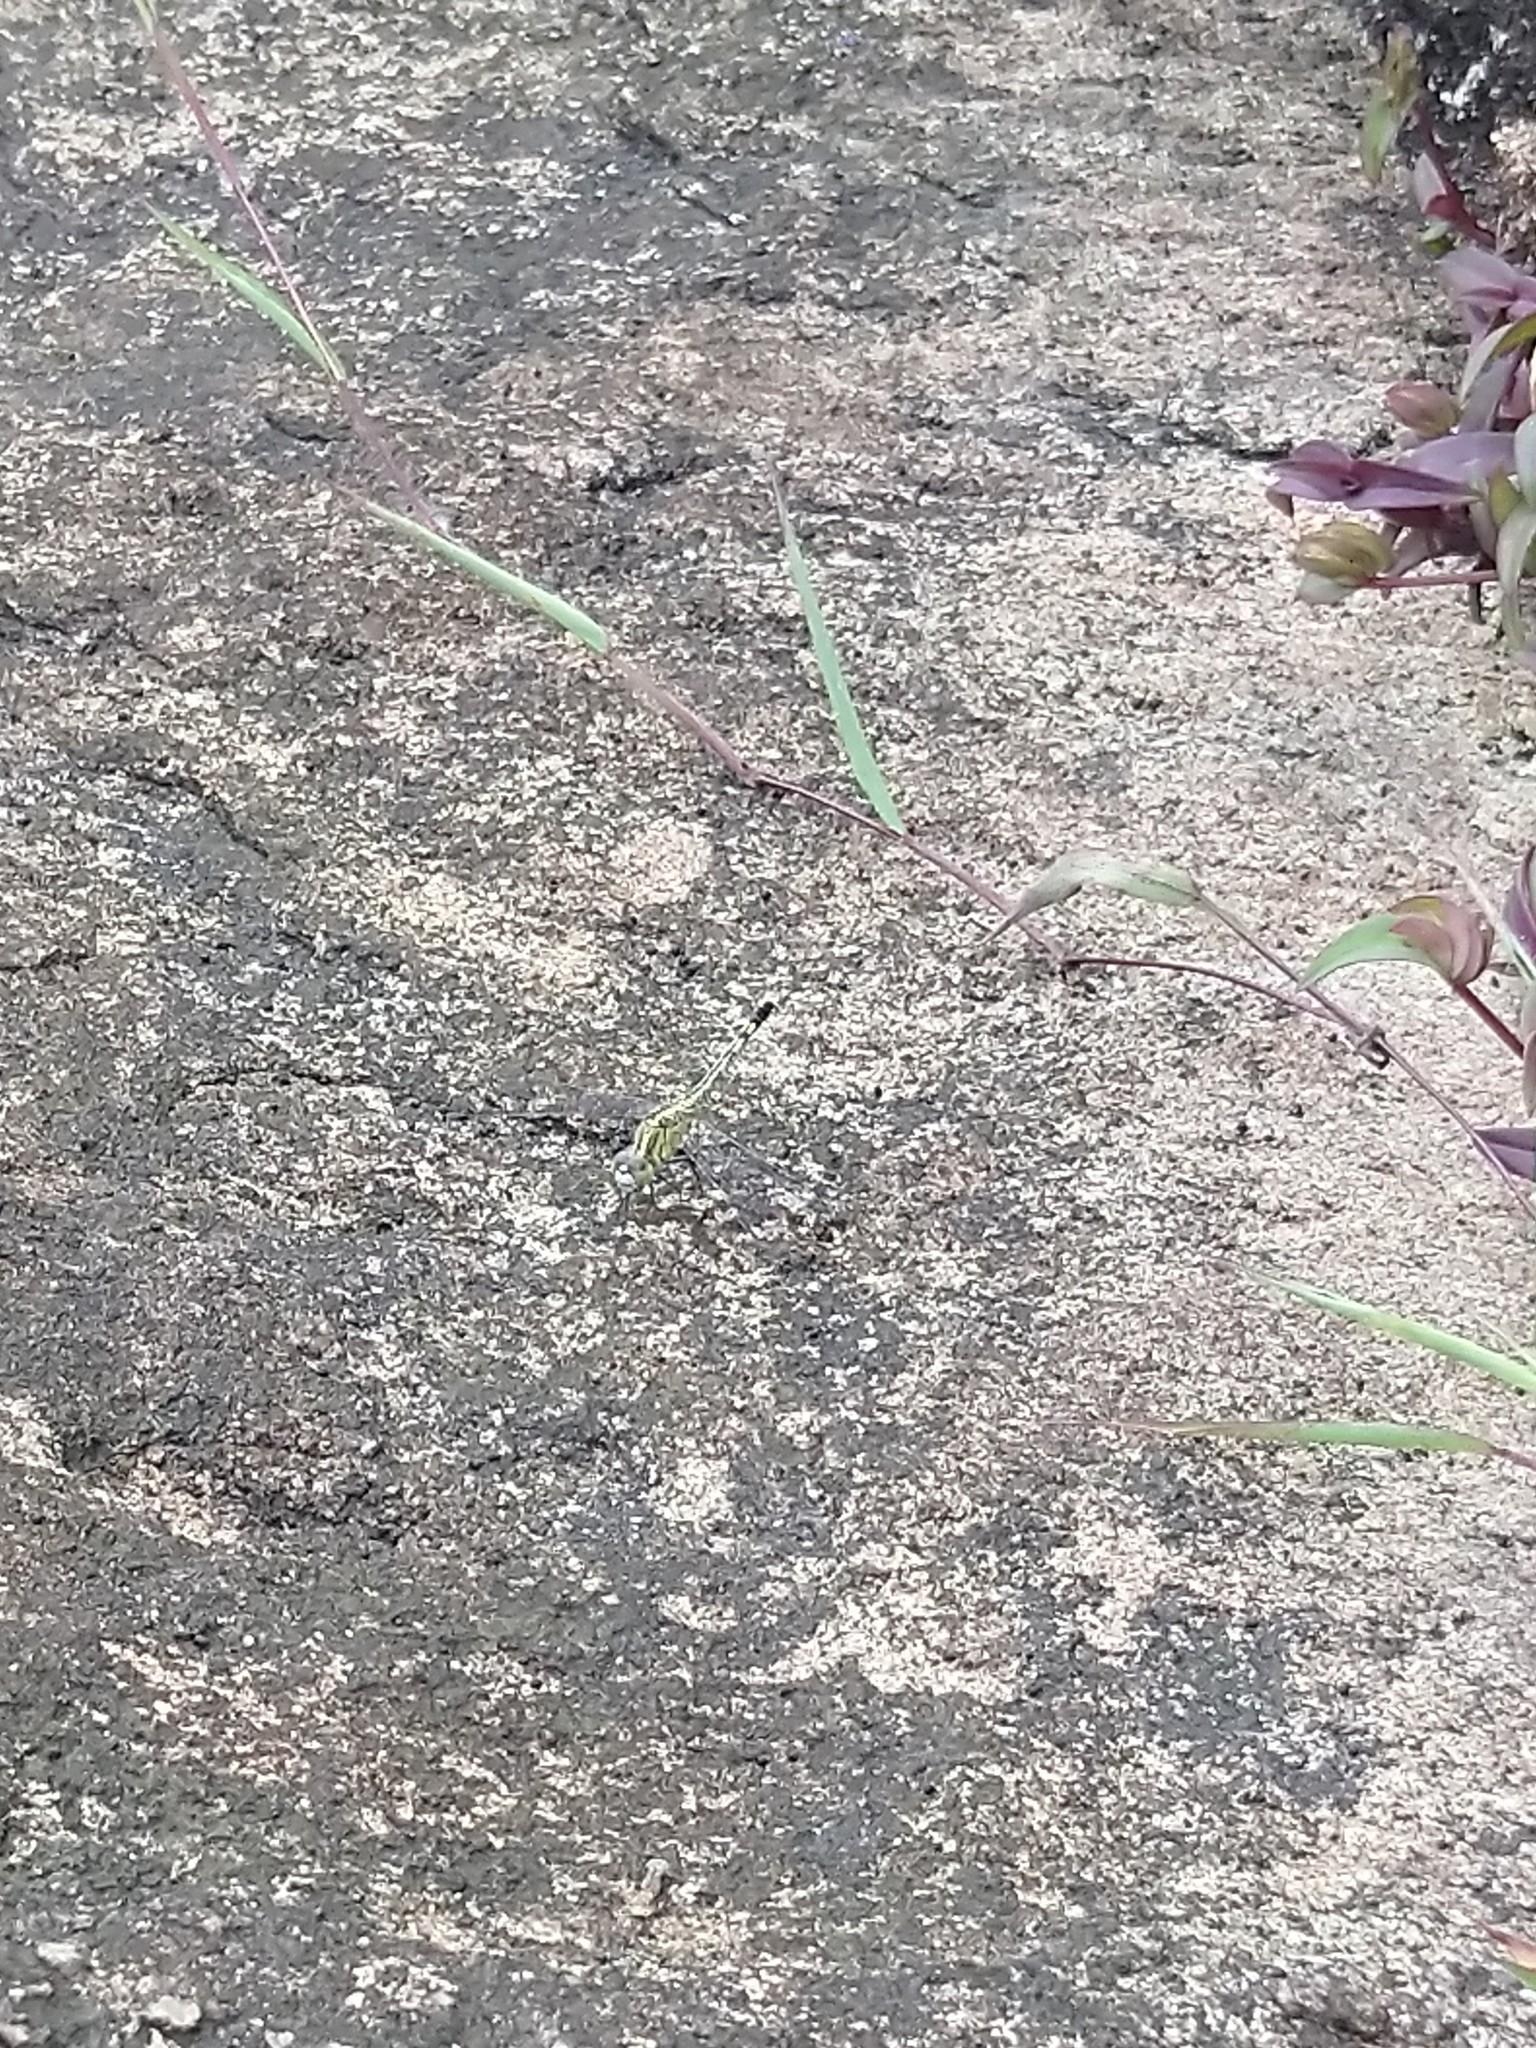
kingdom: Animalia
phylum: Arthropoda
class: Insecta
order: Odonata
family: Libellulidae
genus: Diplacodes
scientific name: Diplacodes trivialis
